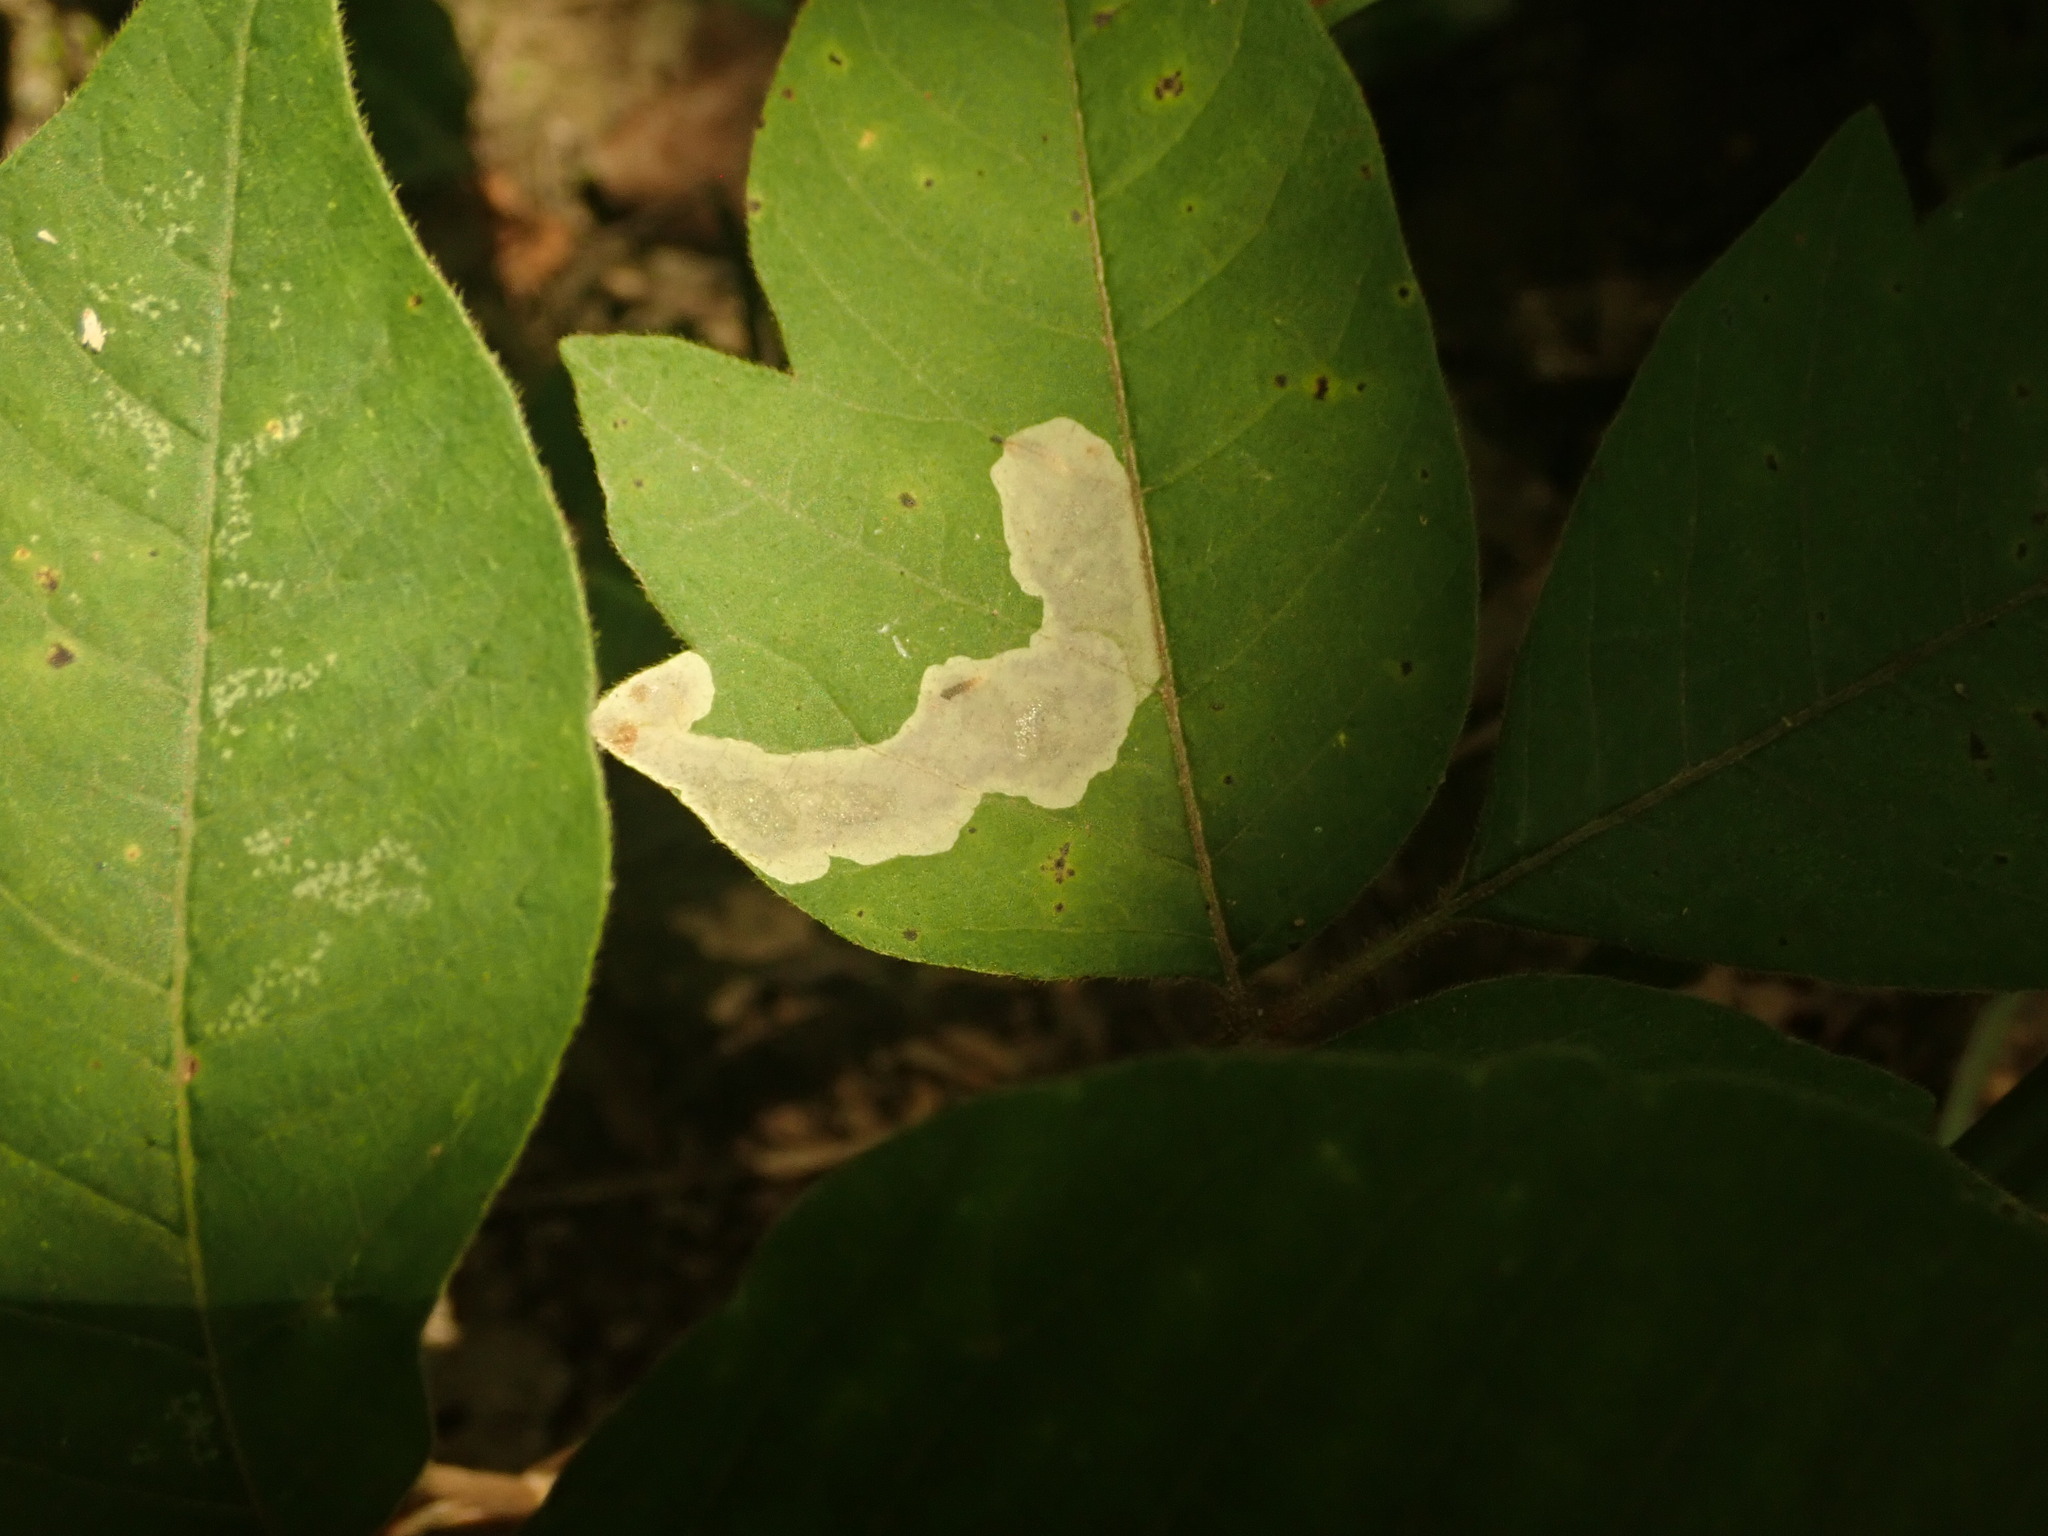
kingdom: Animalia
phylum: Arthropoda
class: Insecta
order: Lepidoptera
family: Gracillariidae
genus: Cameraria
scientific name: Cameraria guttifinitella
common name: Poison ivy leaf-miner moth
